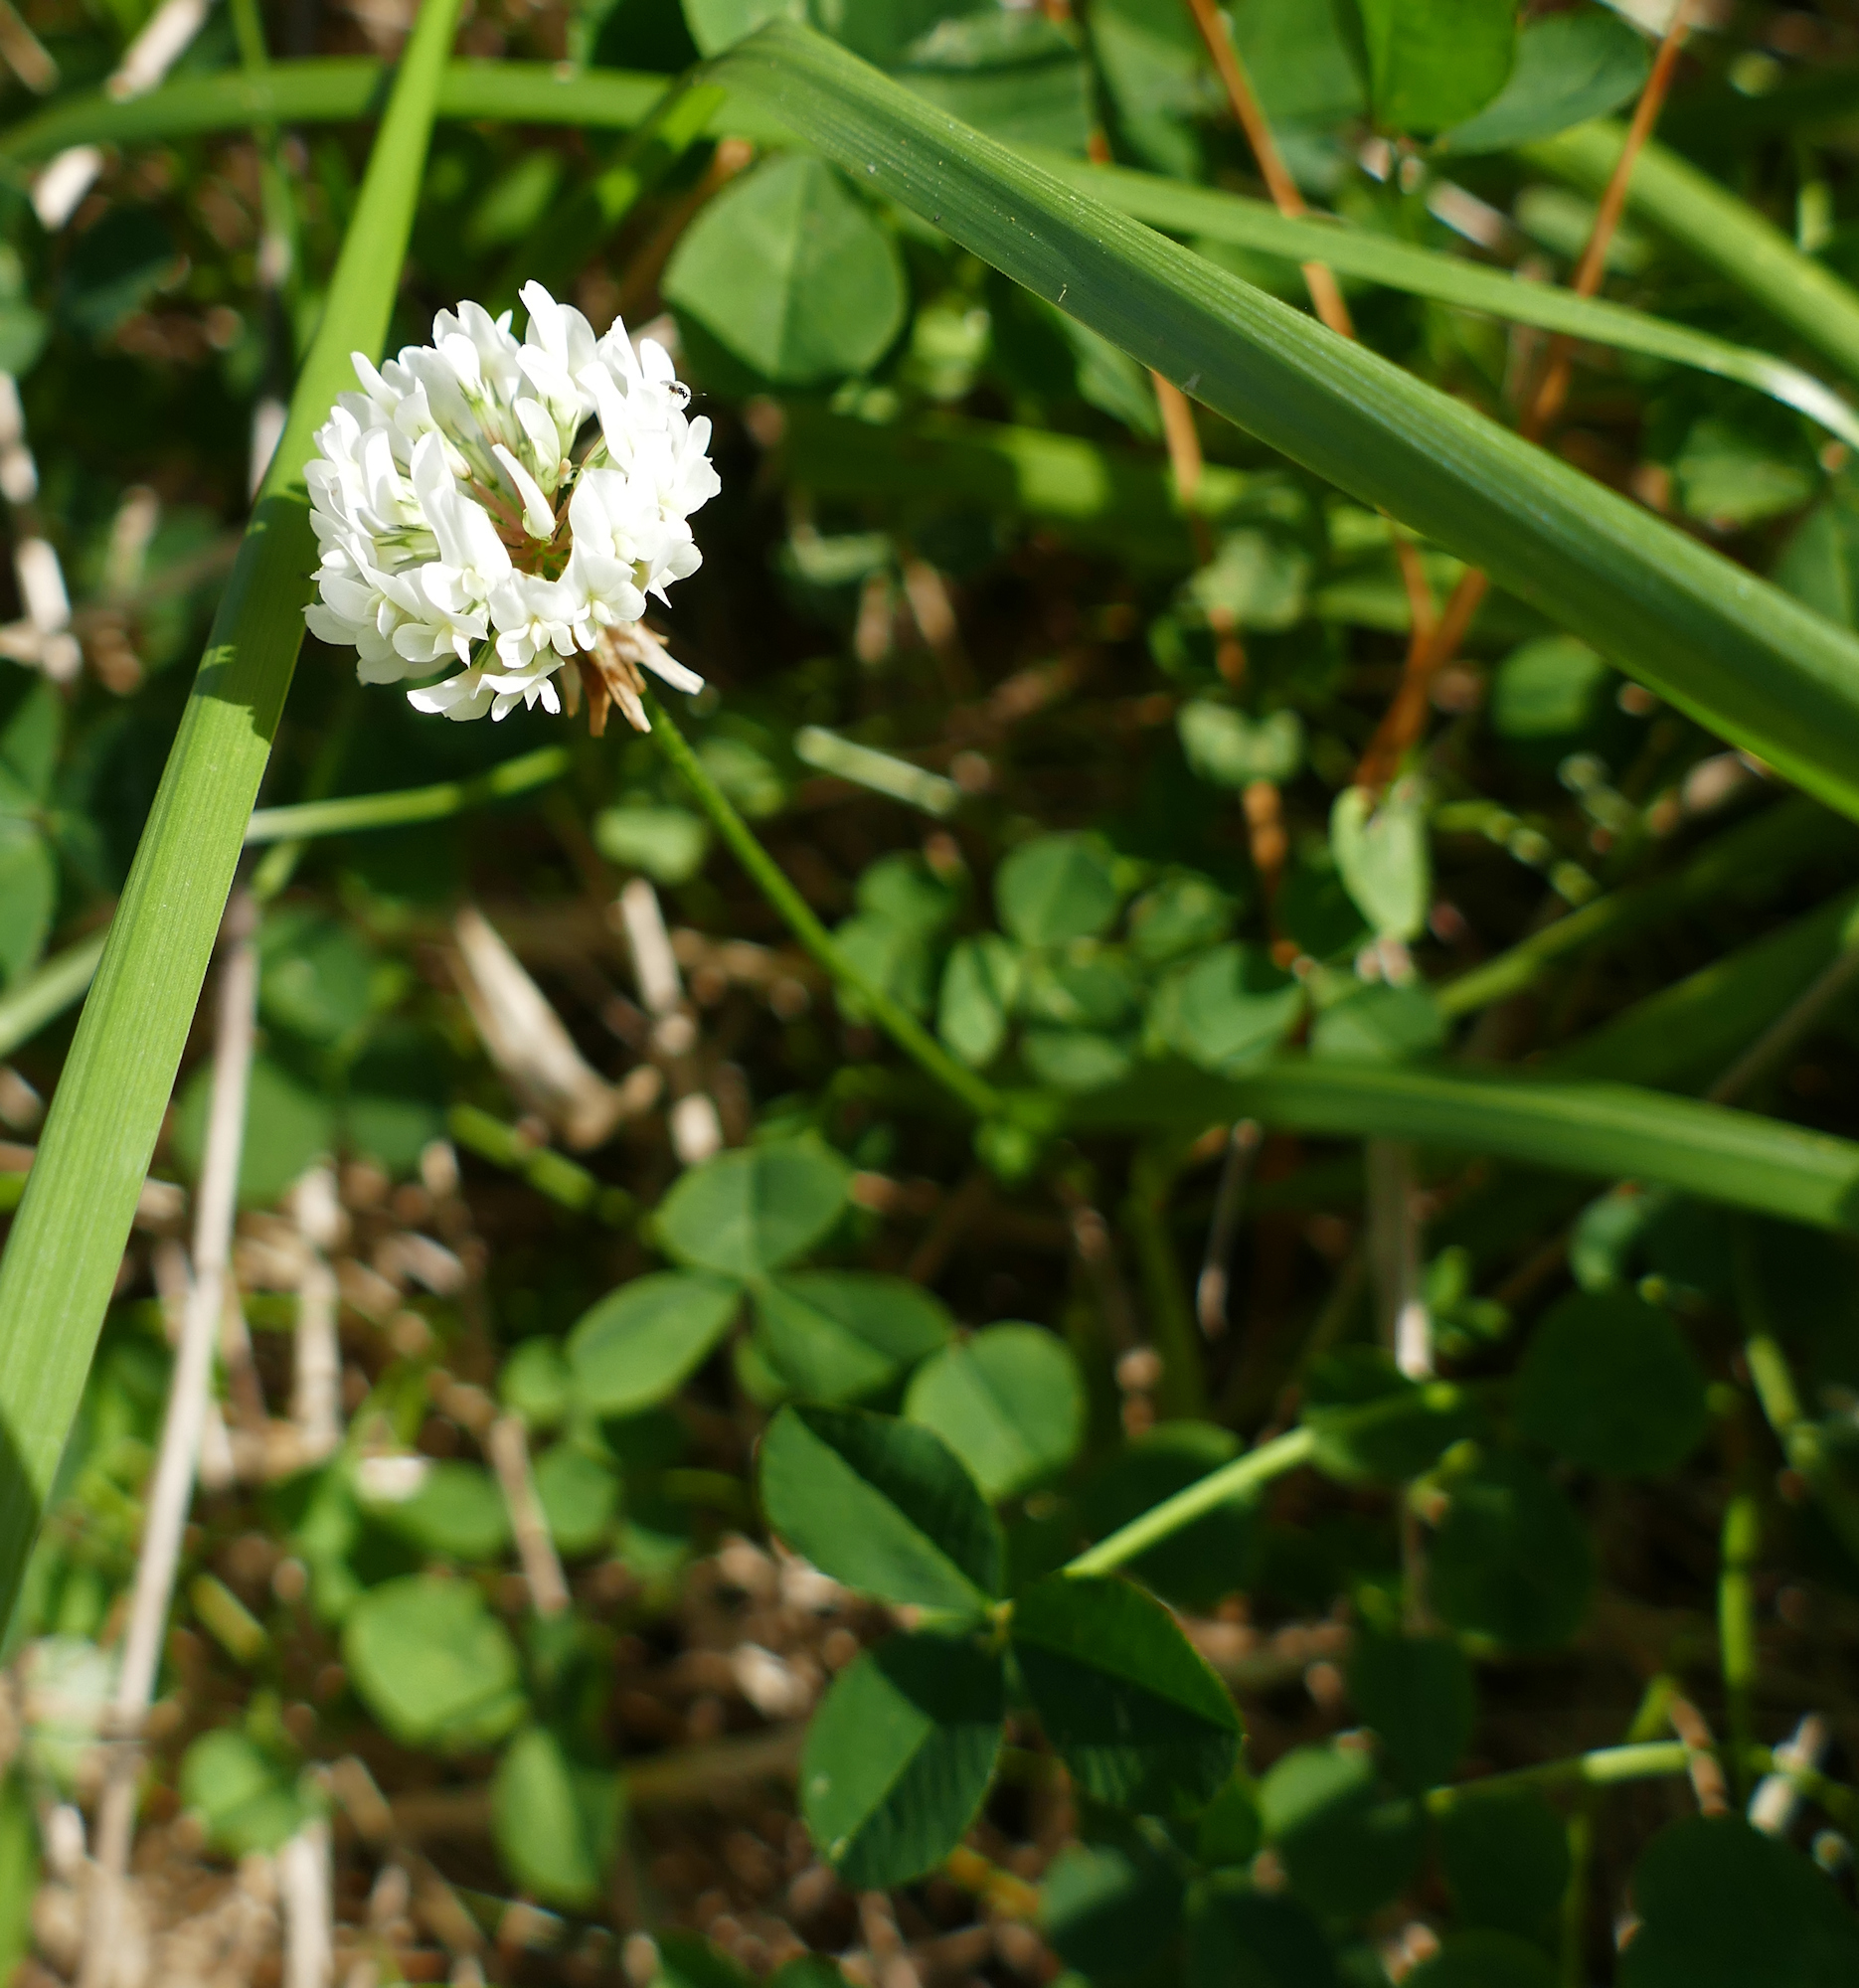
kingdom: Plantae
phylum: Tracheophyta
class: Magnoliopsida
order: Fabales
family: Fabaceae
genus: Trifolium
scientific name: Trifolium repens
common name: White clover
